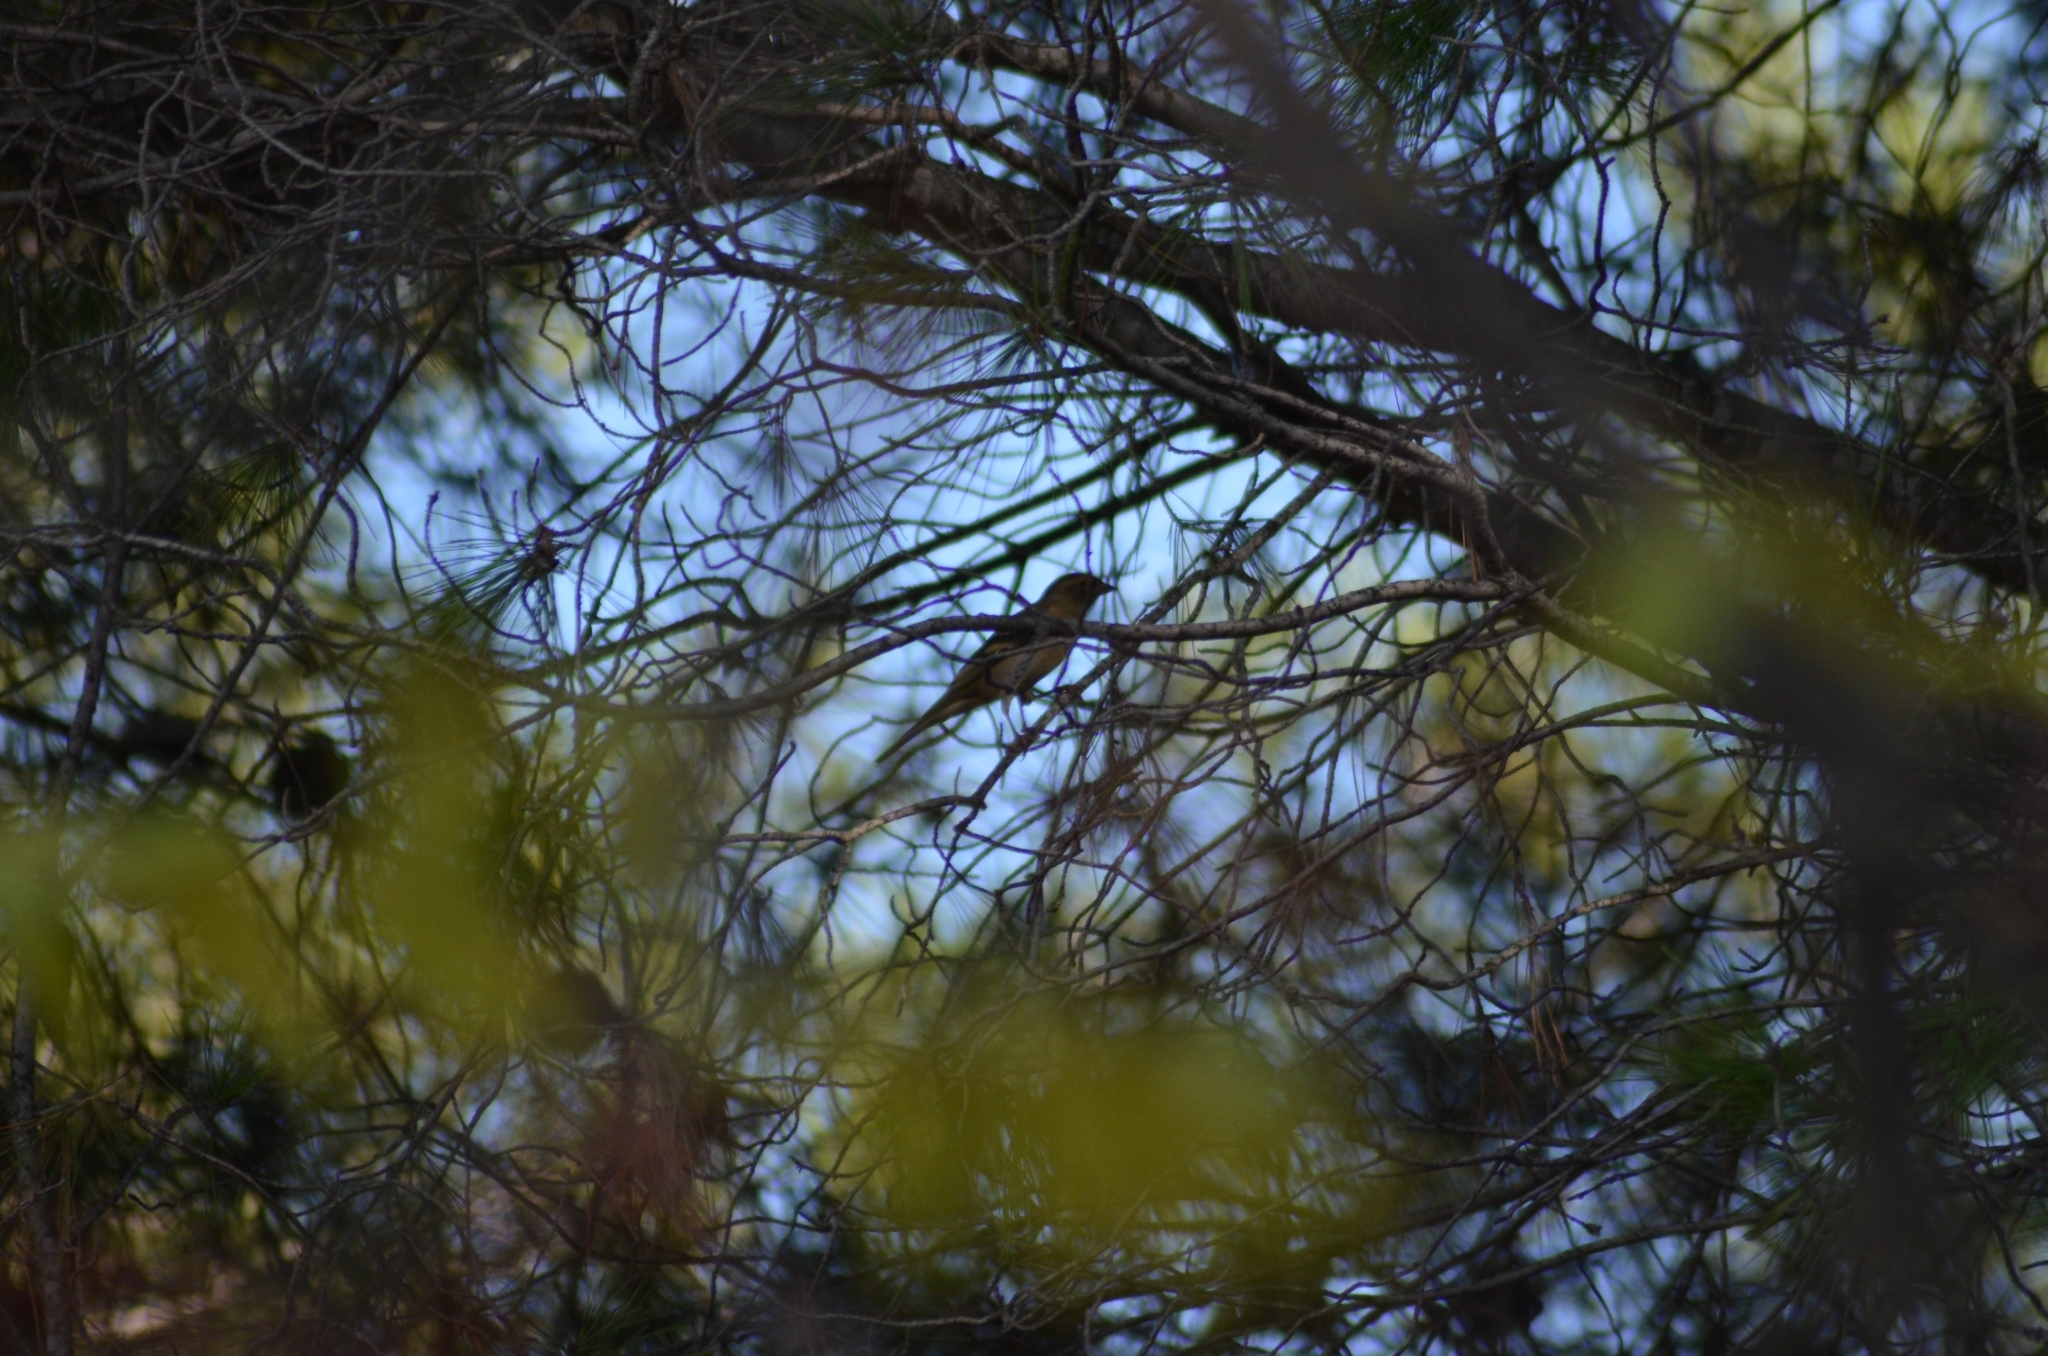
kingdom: Animalia
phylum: Chordata
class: Aves
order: Passeriformes
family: Fringillidae
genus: Fringilla
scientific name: Fringilla coelebs
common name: Common chaffinch
